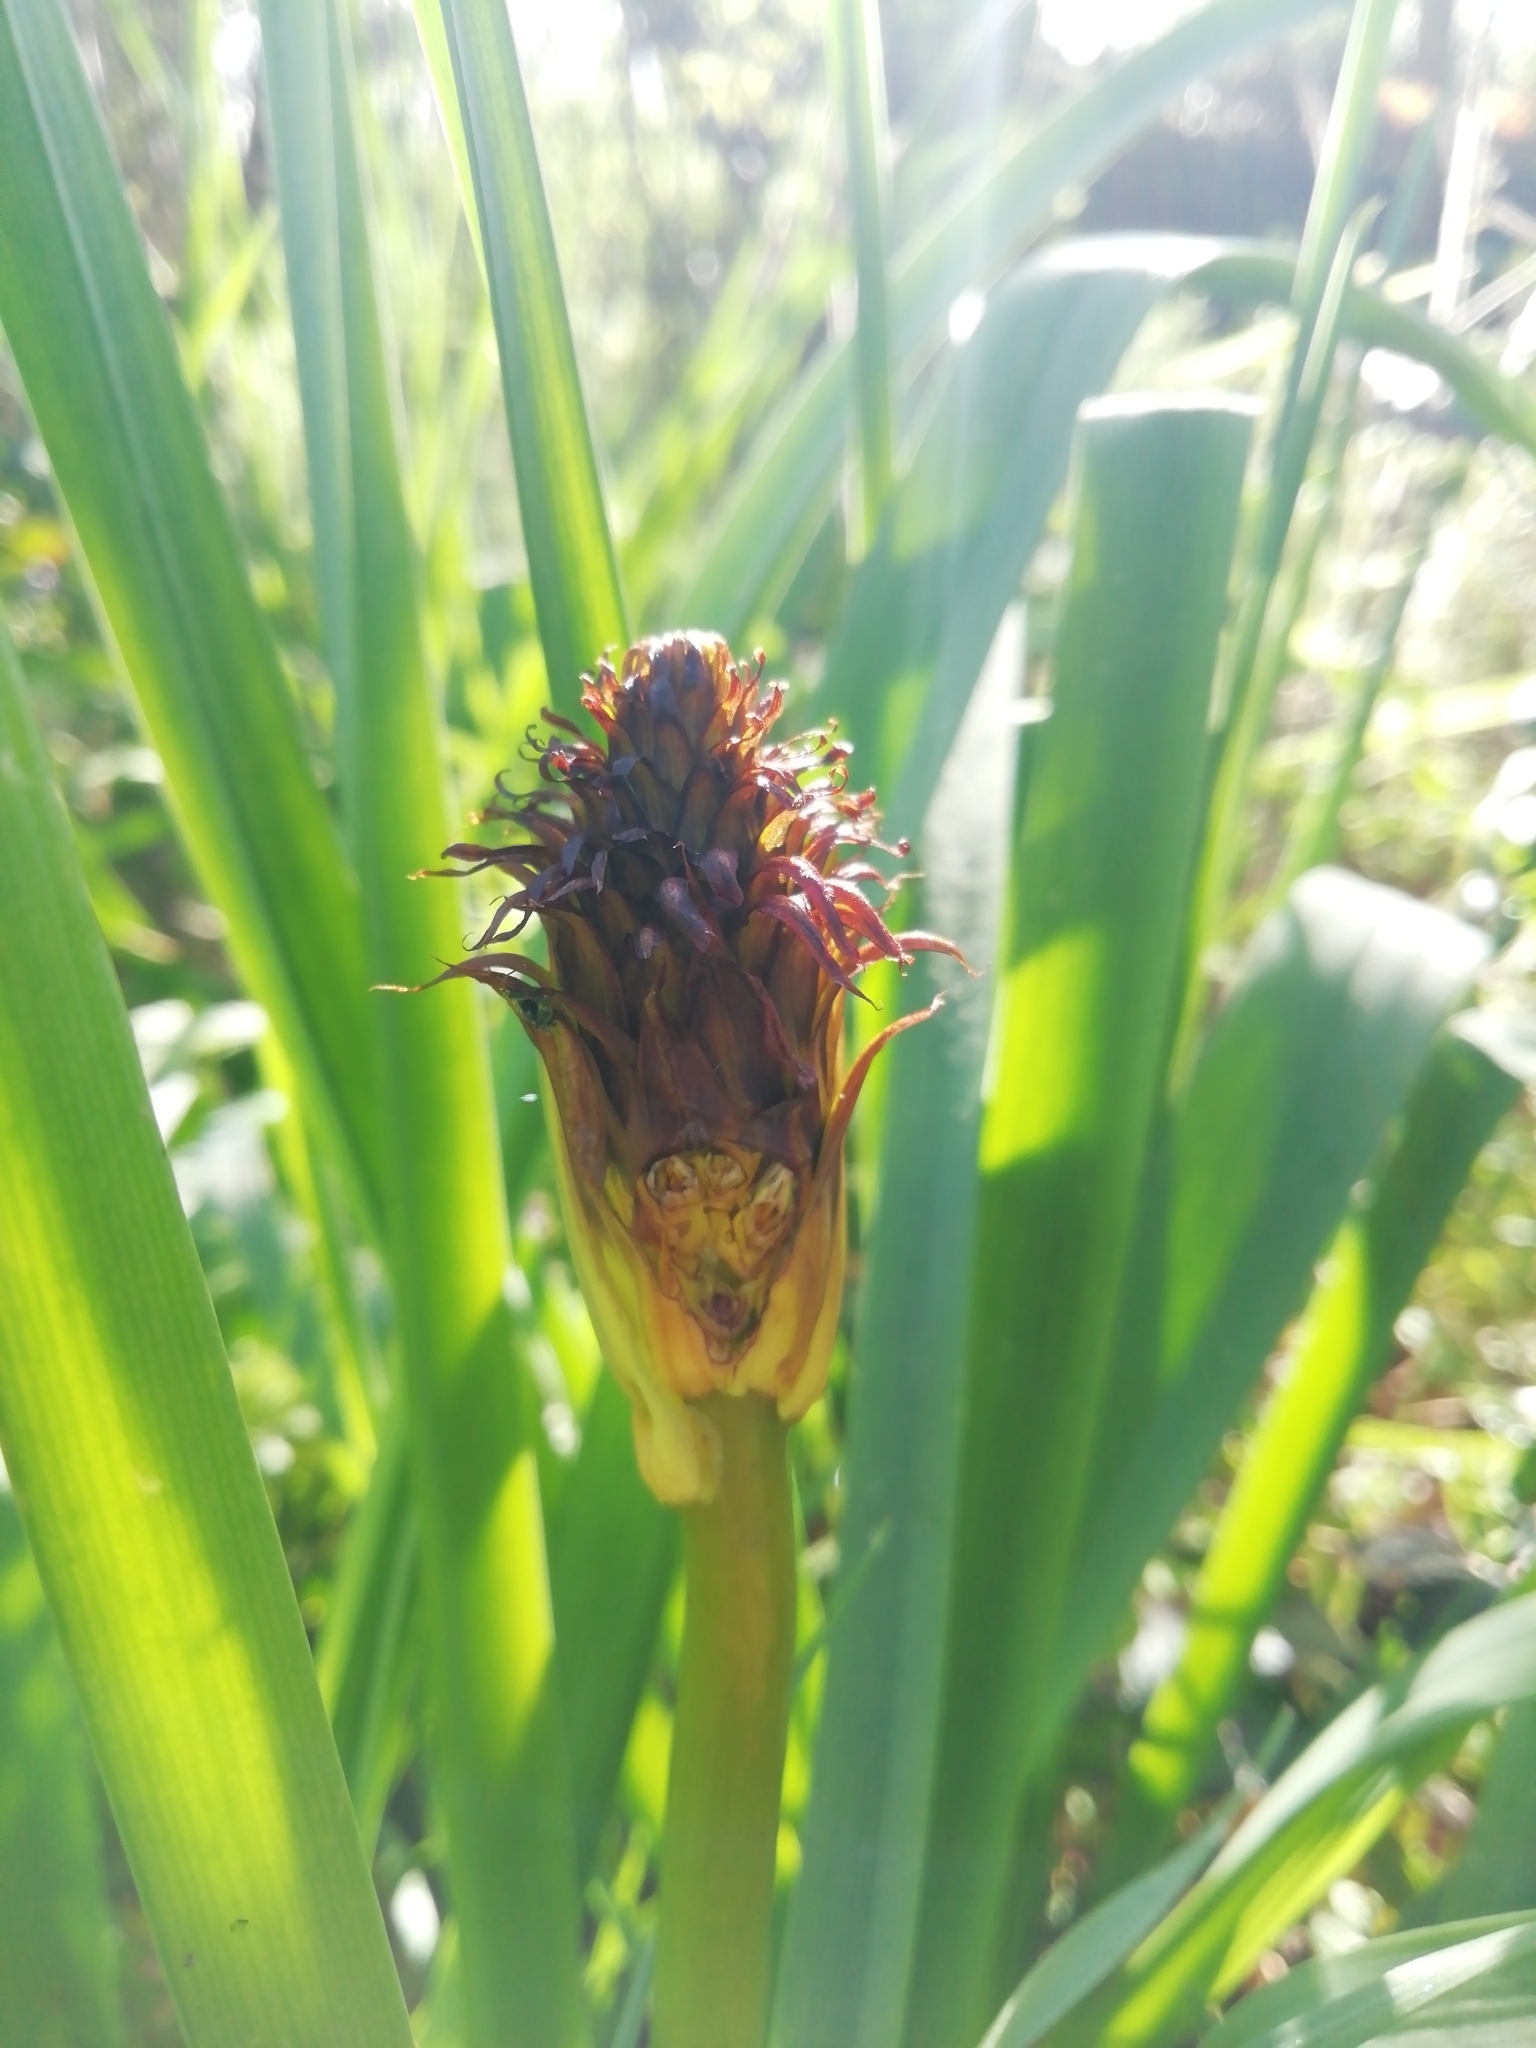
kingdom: Plantae
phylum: Tracheophyta
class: Liliopsida
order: Asparagales
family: Asphodelaceae
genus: Asphodelus
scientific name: Asphodelus albus
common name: White asphodel
